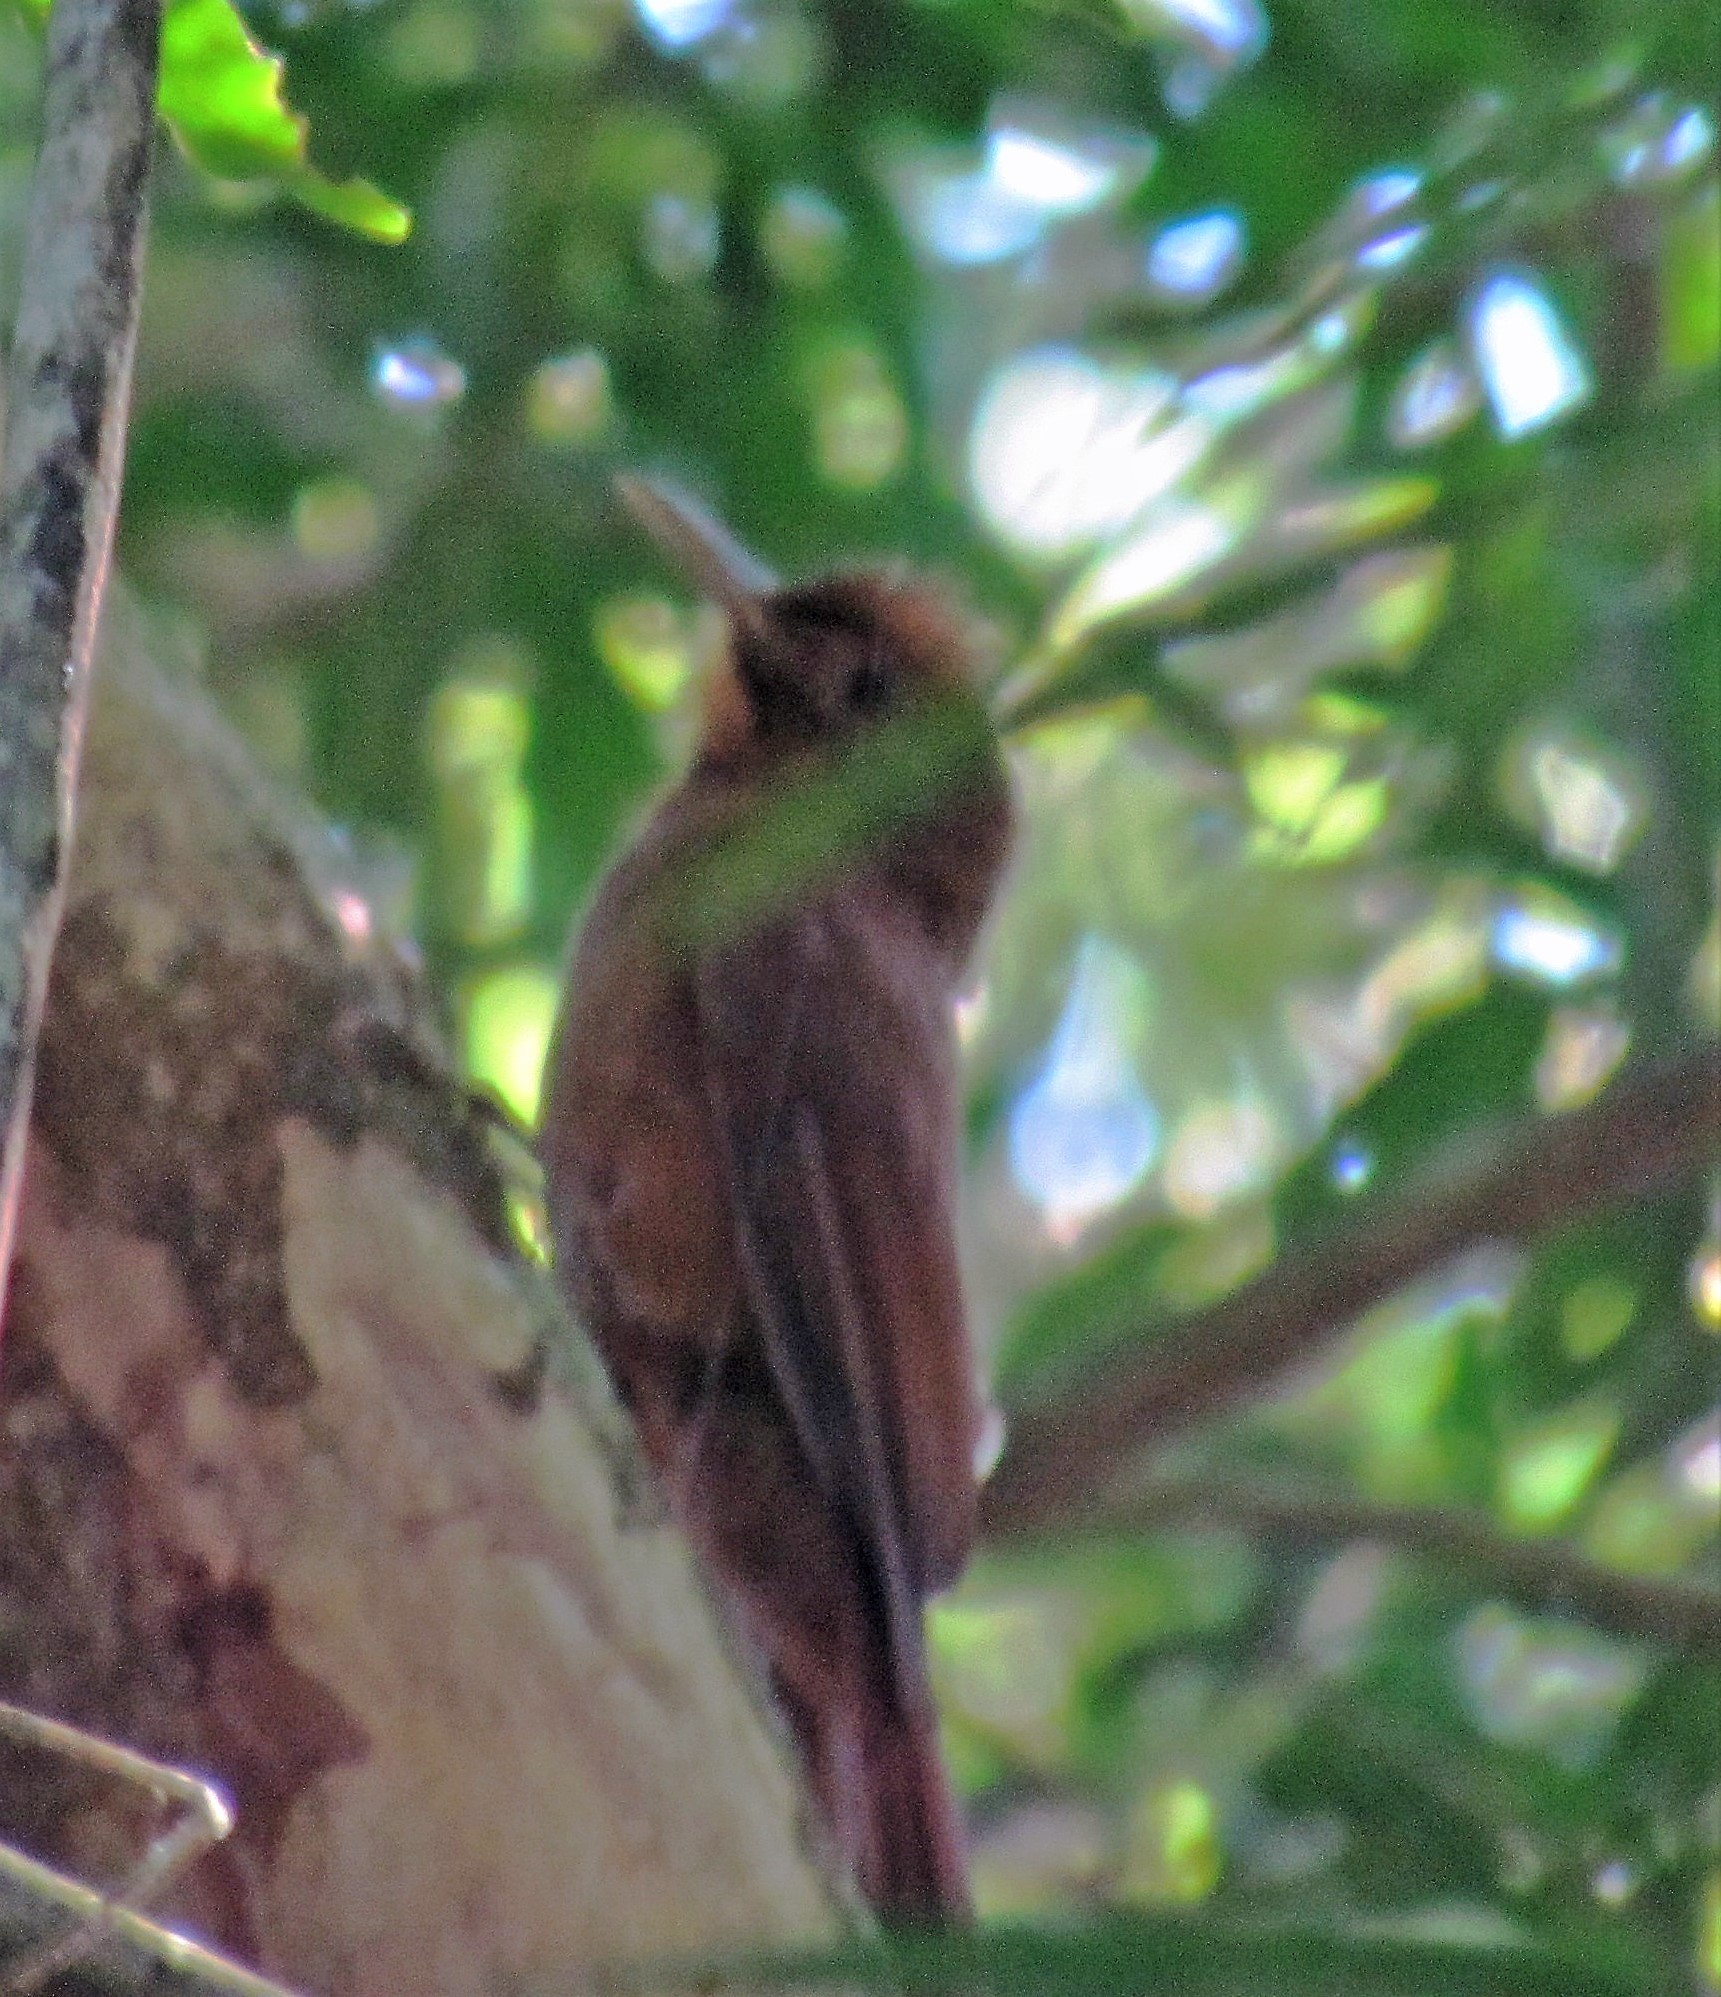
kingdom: Animalia
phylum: Chordata
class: Aves
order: Passeriformes
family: Furnariidae
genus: Dendrocincla
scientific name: Dendrocincla fuliginosa
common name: Plain-brown woodcreeper
